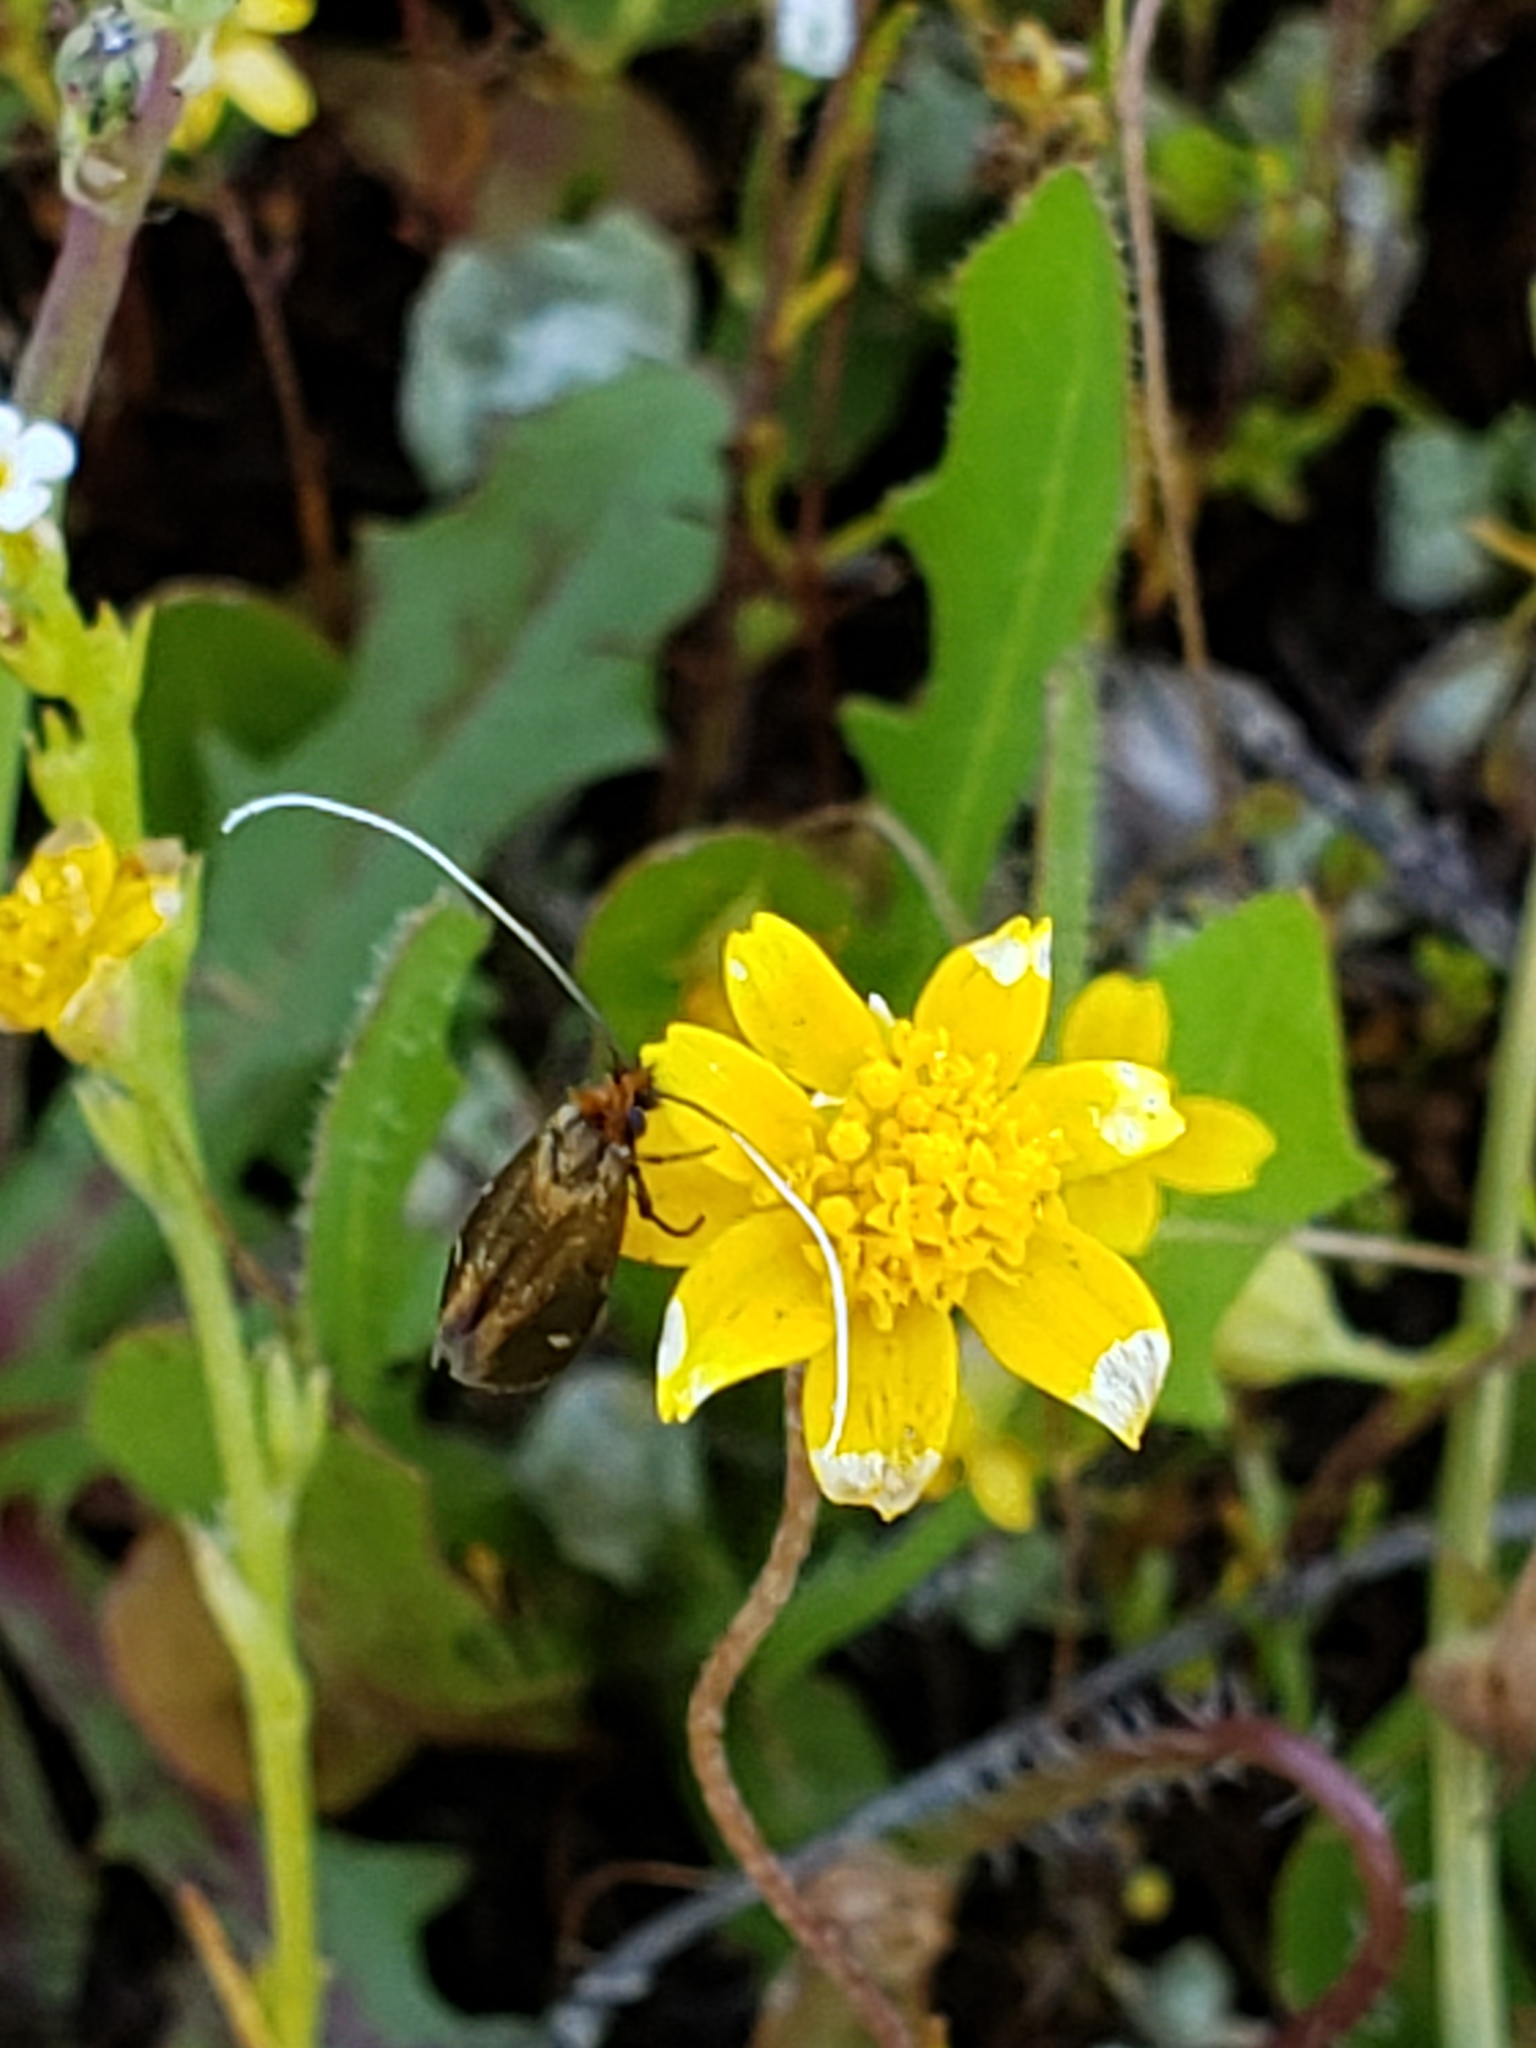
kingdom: Animalia
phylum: Arthropoda
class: Insecta
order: Lepidoptera
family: Adelidae
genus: Adela
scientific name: Adela flammeusella
